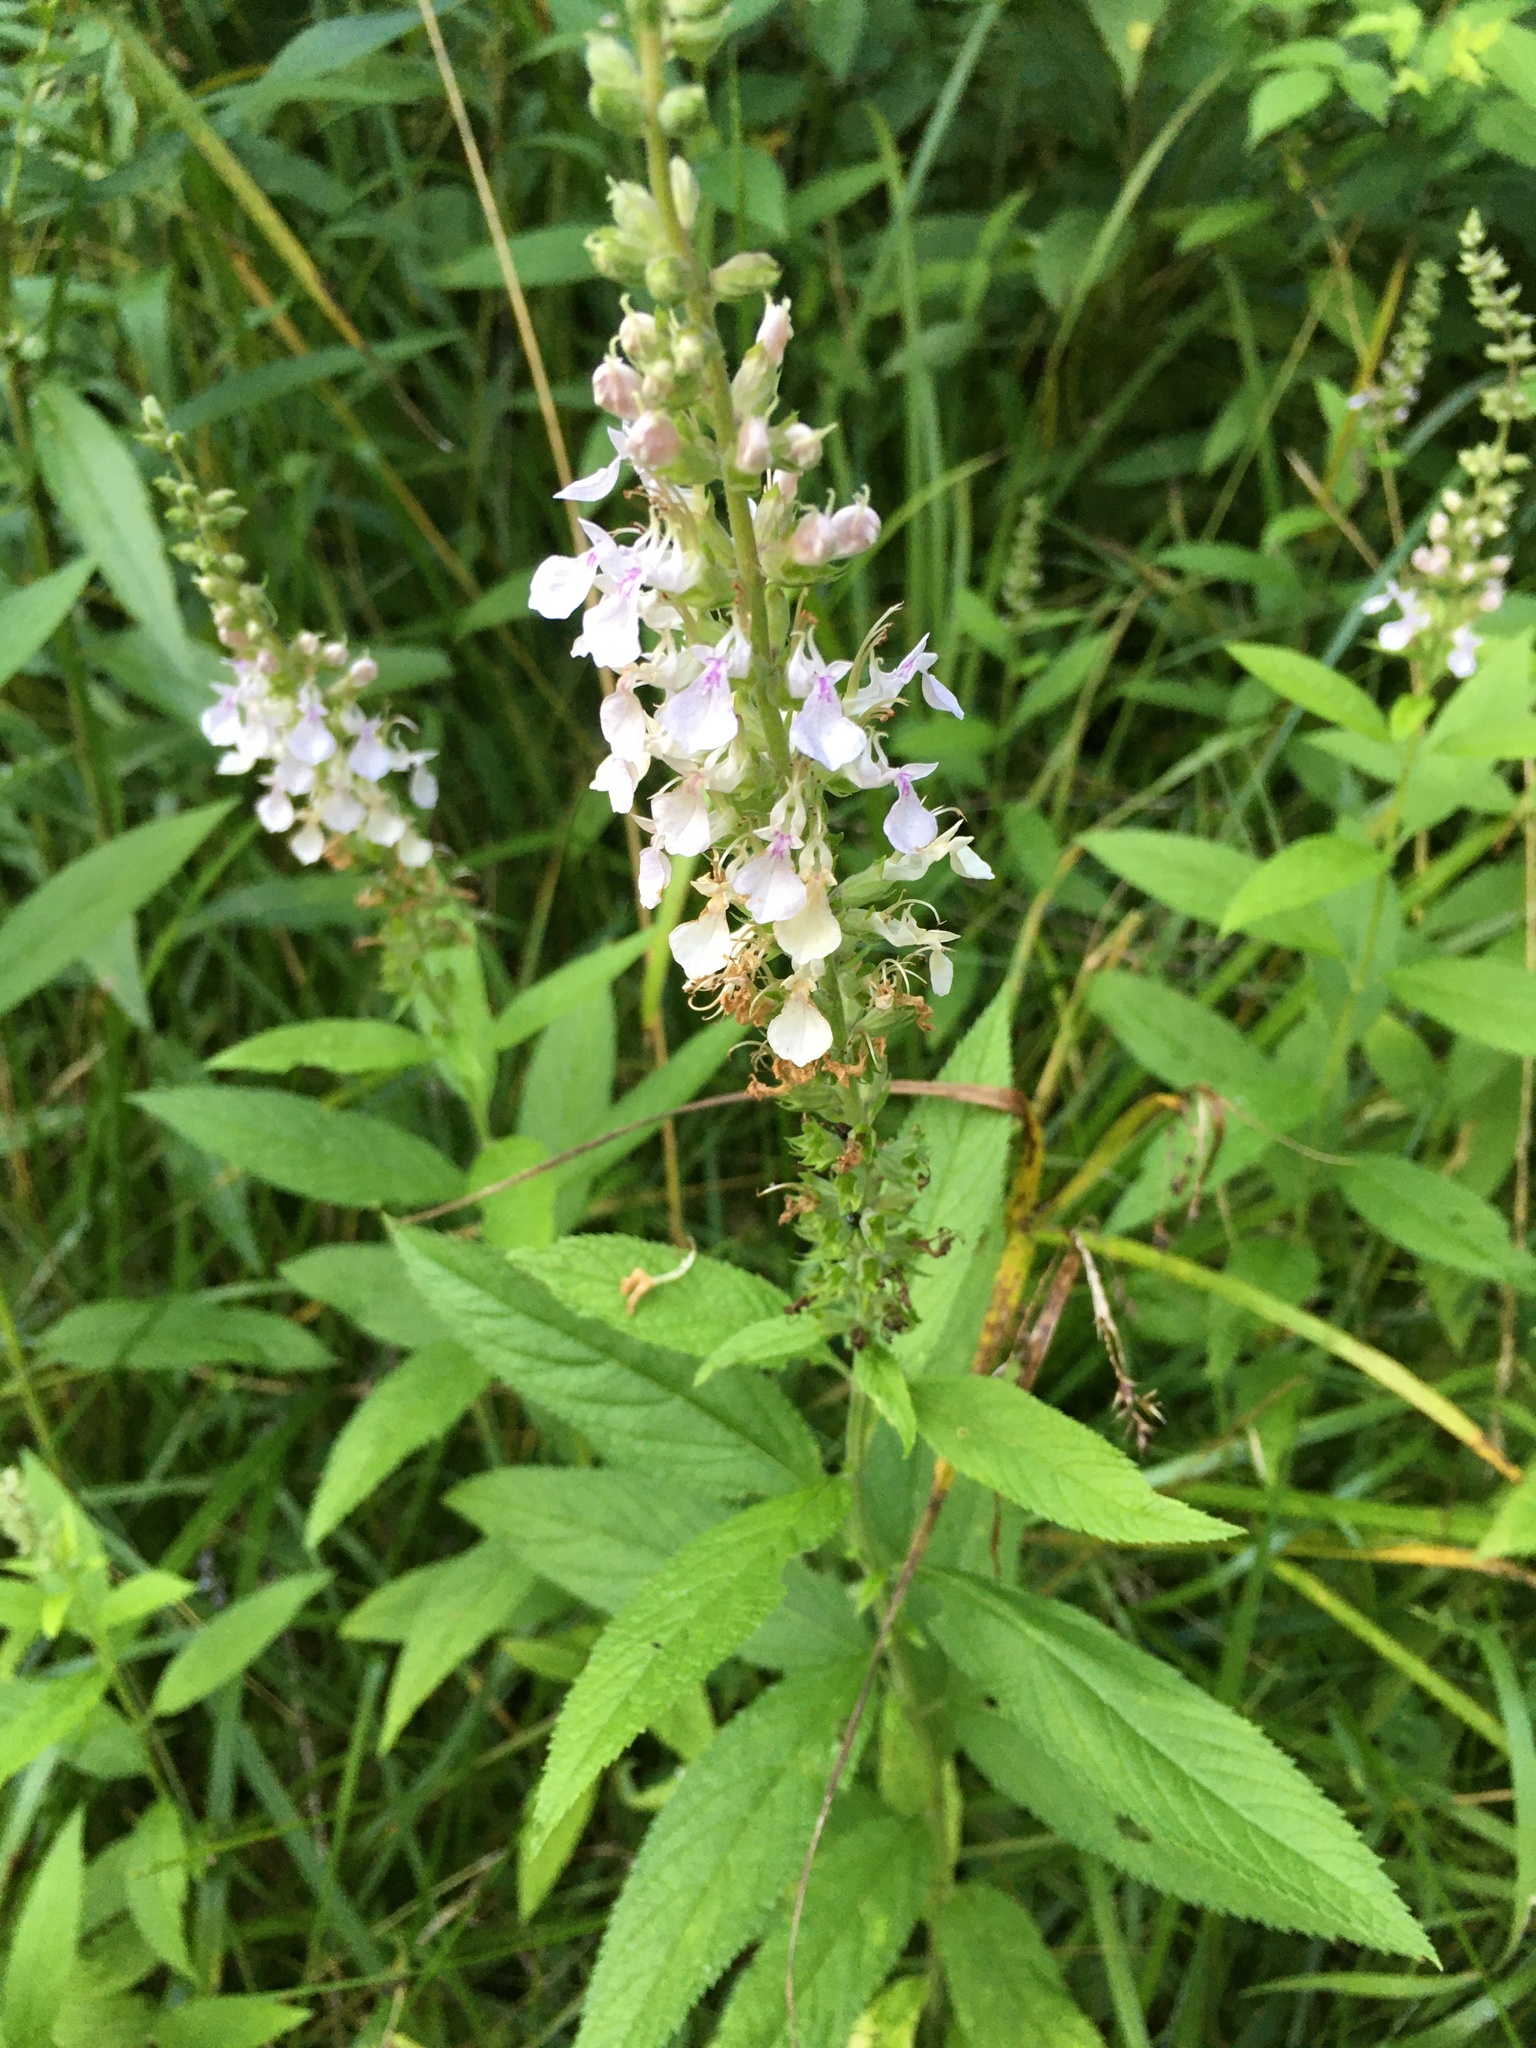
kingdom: Plantae
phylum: Tracheophyta
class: Magnoliopsida
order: Lamiales
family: Lamiaceae
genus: Teucrium
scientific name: Teucrium canadense
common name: American germander
